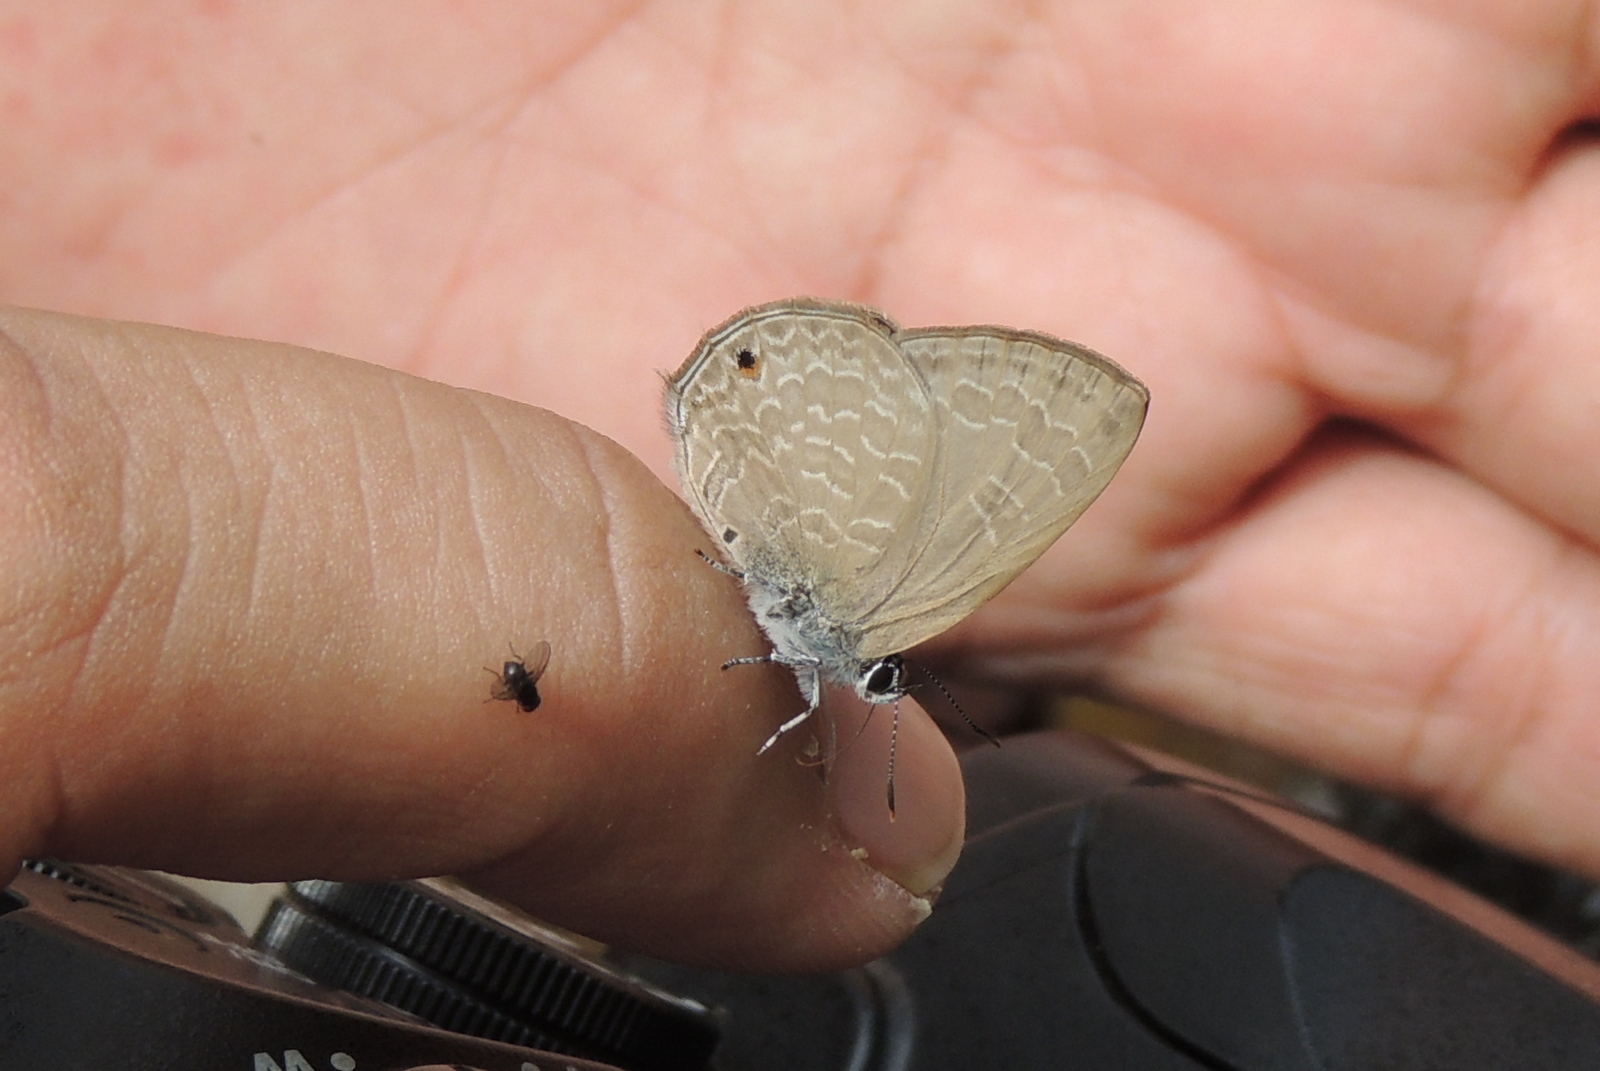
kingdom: Animalia
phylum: Arthropoda
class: Insecta
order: Lepidoptera
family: Lycaenidae
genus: Anthene
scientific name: Anthene emolus
